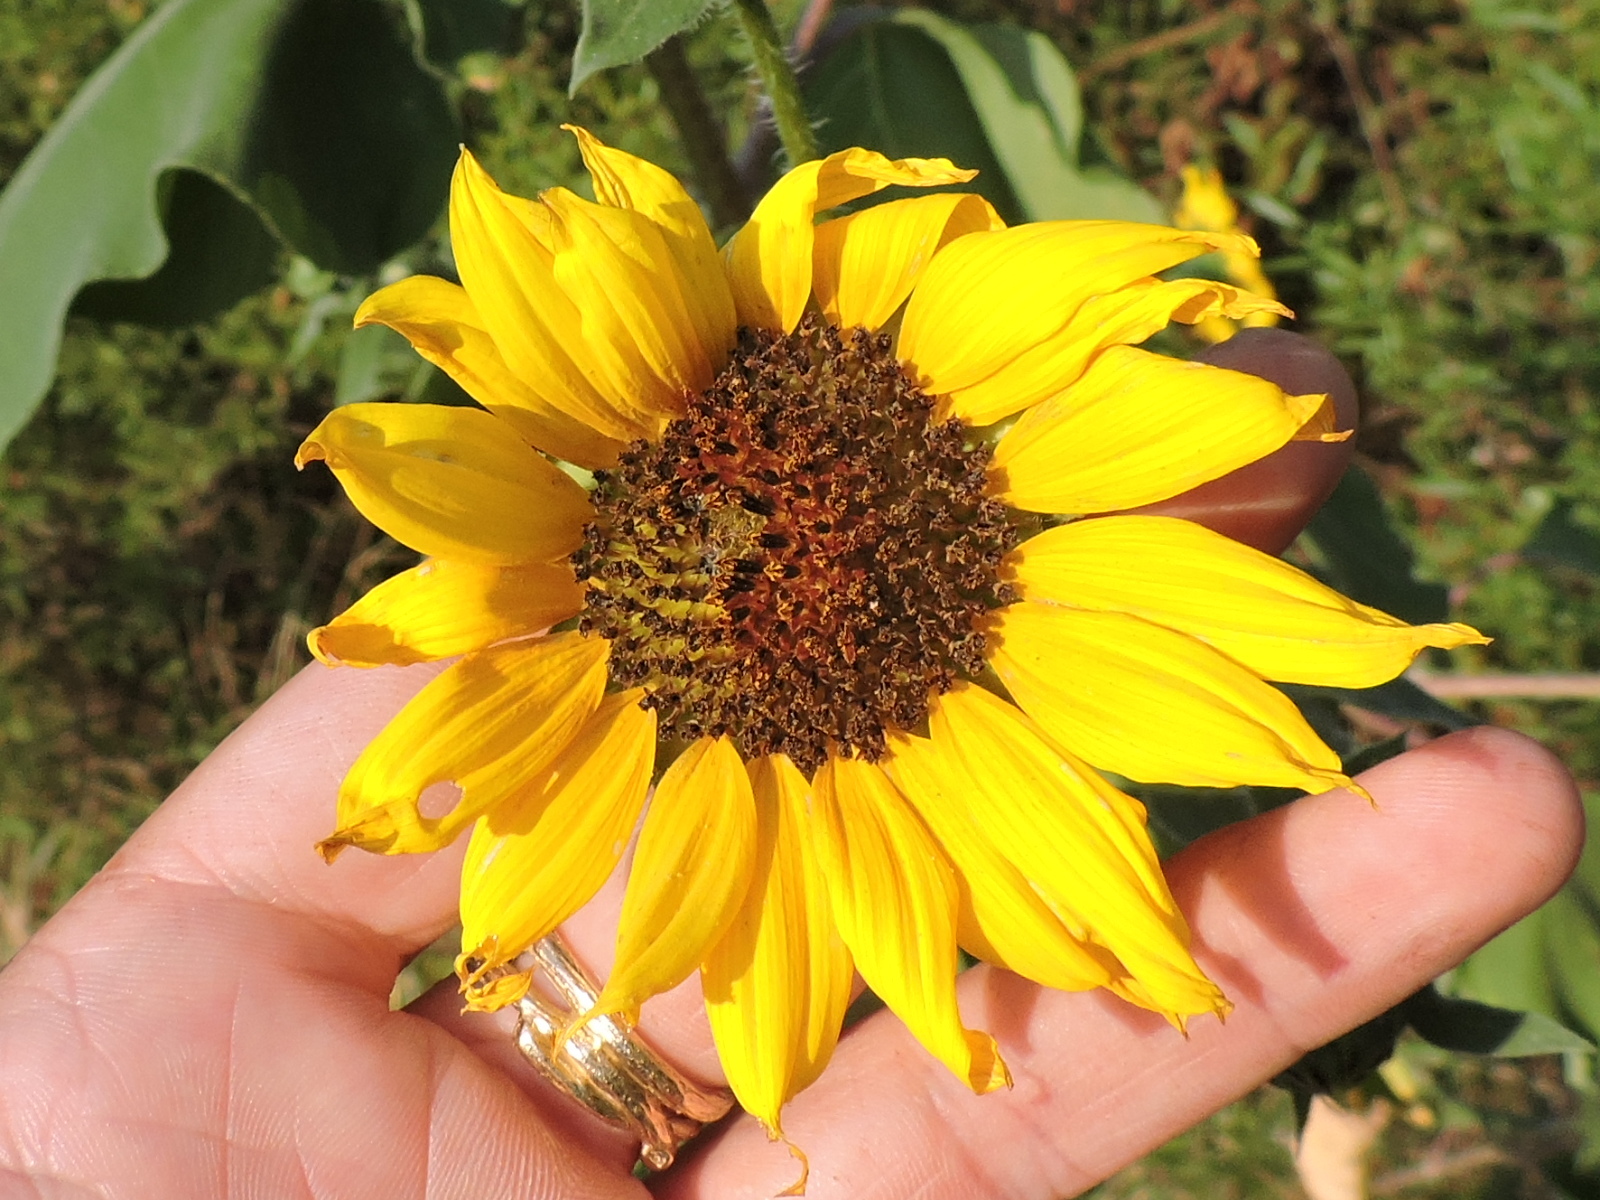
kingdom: Plantae
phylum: Tracheophyta
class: Magnoliopsida
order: Asterales
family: Asteraceae
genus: Helianthus
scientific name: Helianthus annuus
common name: Sunflower
